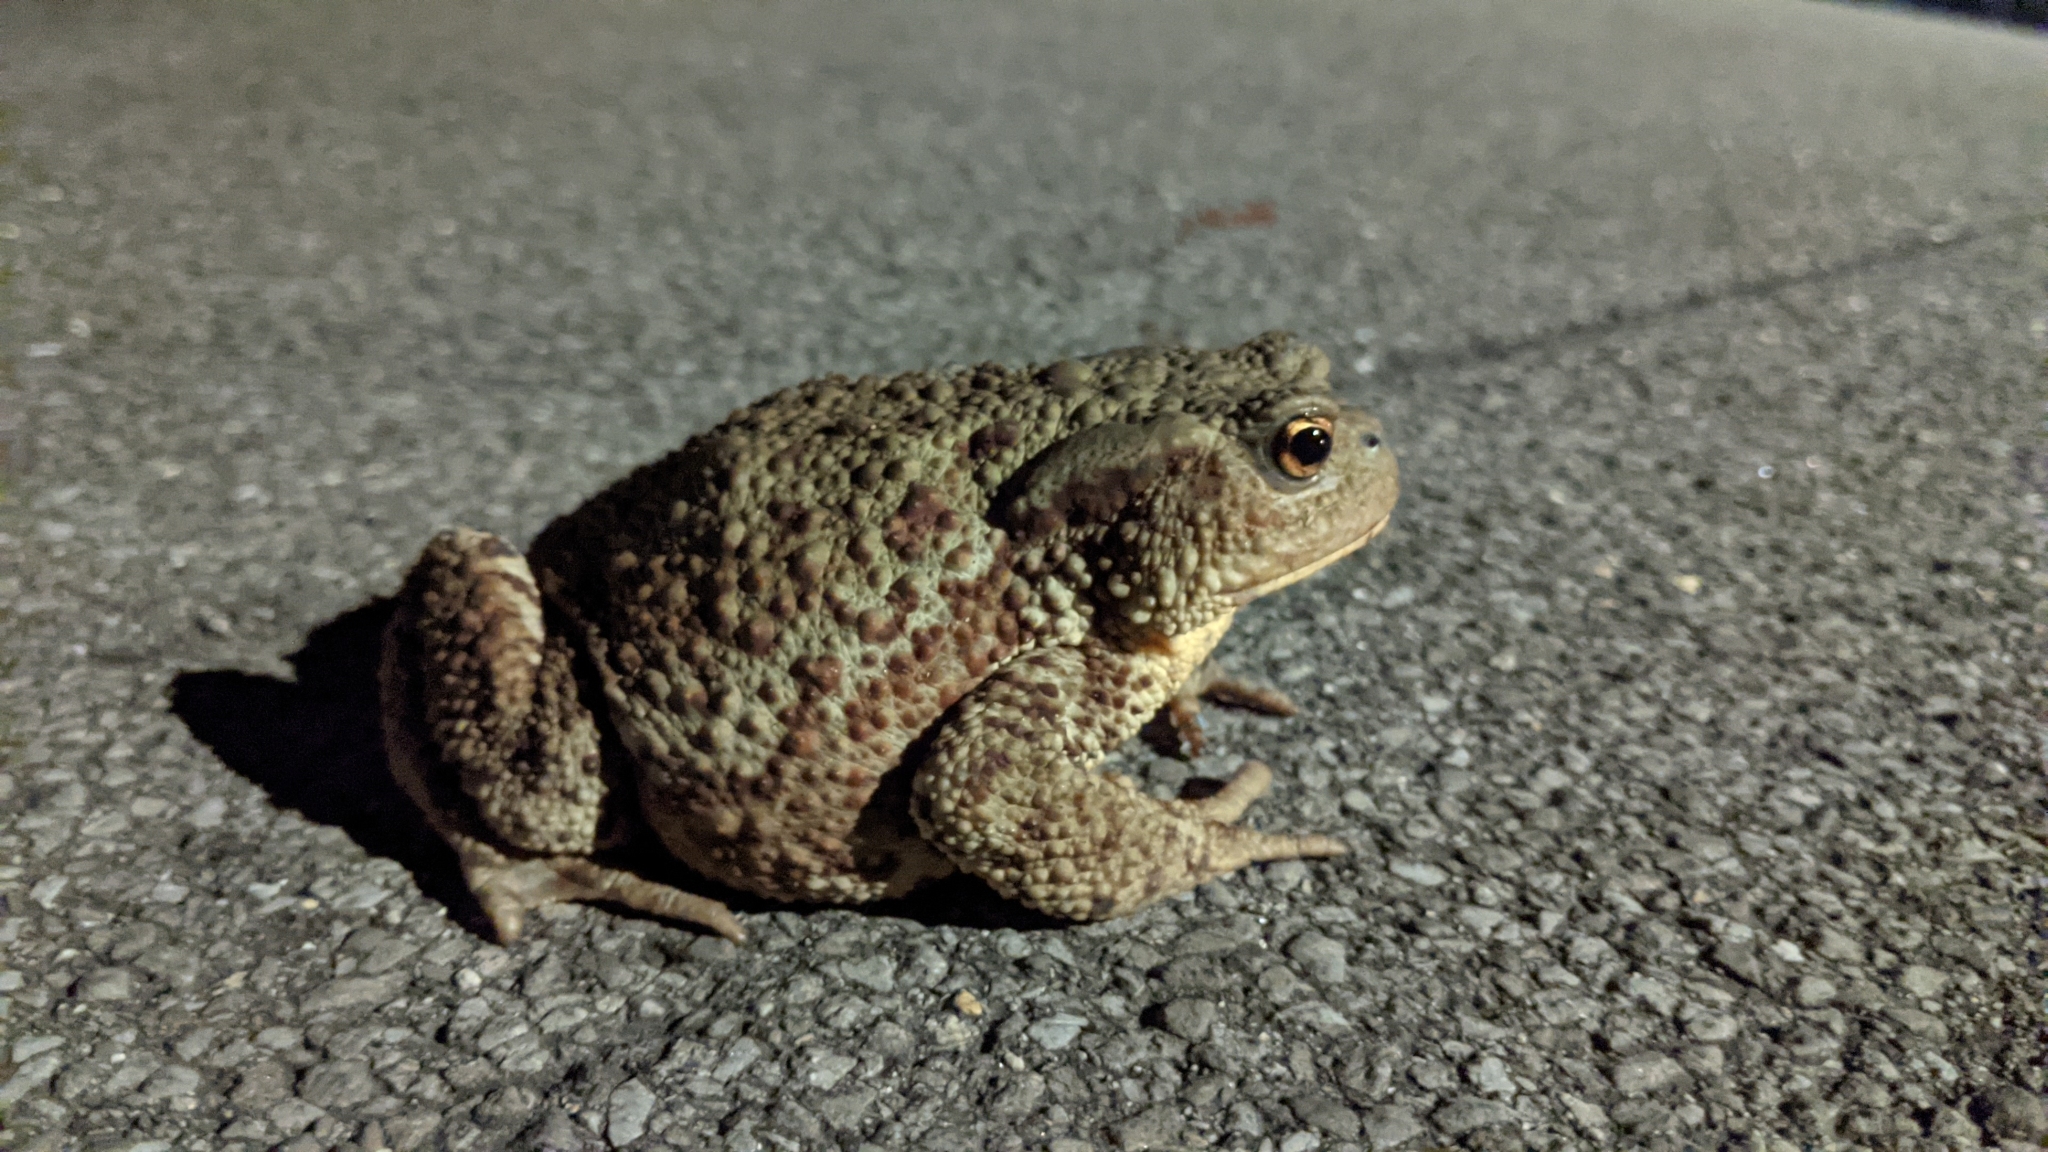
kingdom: Animalia
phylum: Chordata
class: Amphibia
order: Anura
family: Bufonidae
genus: Bufo
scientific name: Bufo bufo
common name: Common toad
